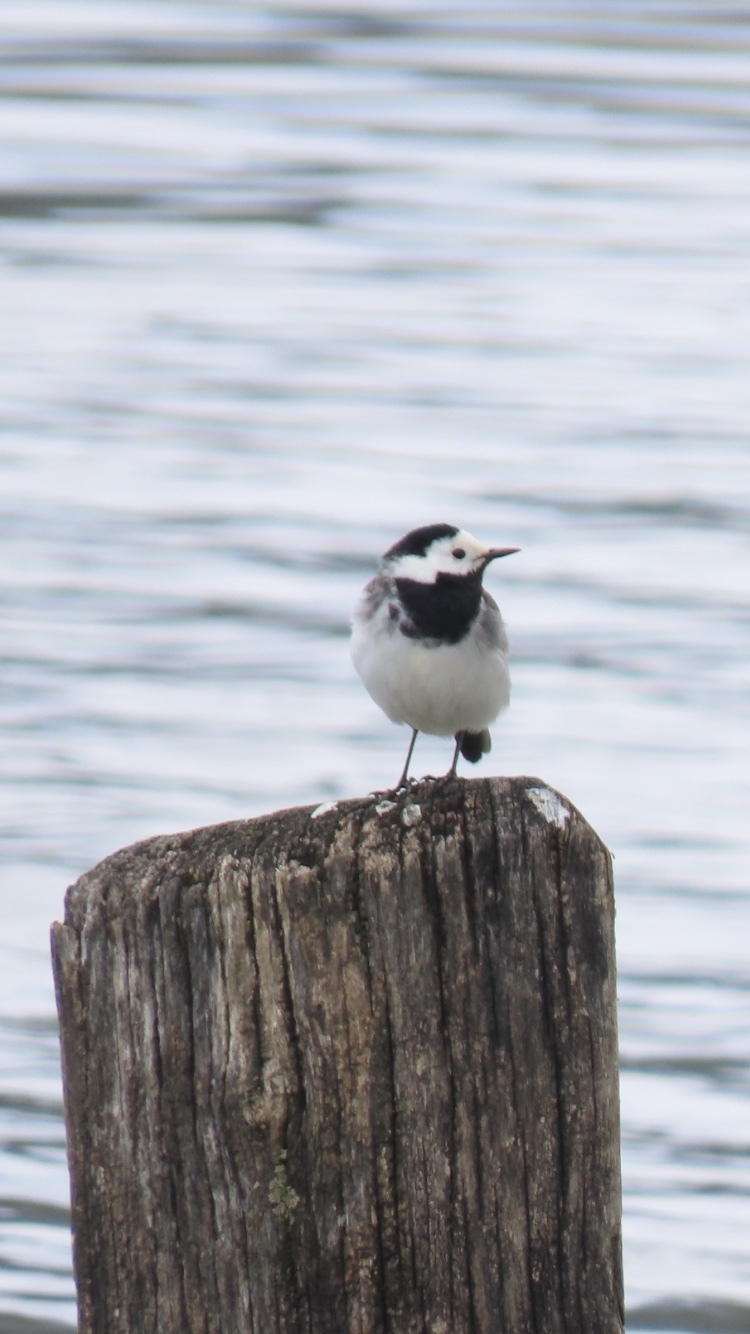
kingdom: Animalia
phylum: Chordata
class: Aves
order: Passeriformes
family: Motacillidae
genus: Motacilla
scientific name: Motacilla alba
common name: White wagtail
